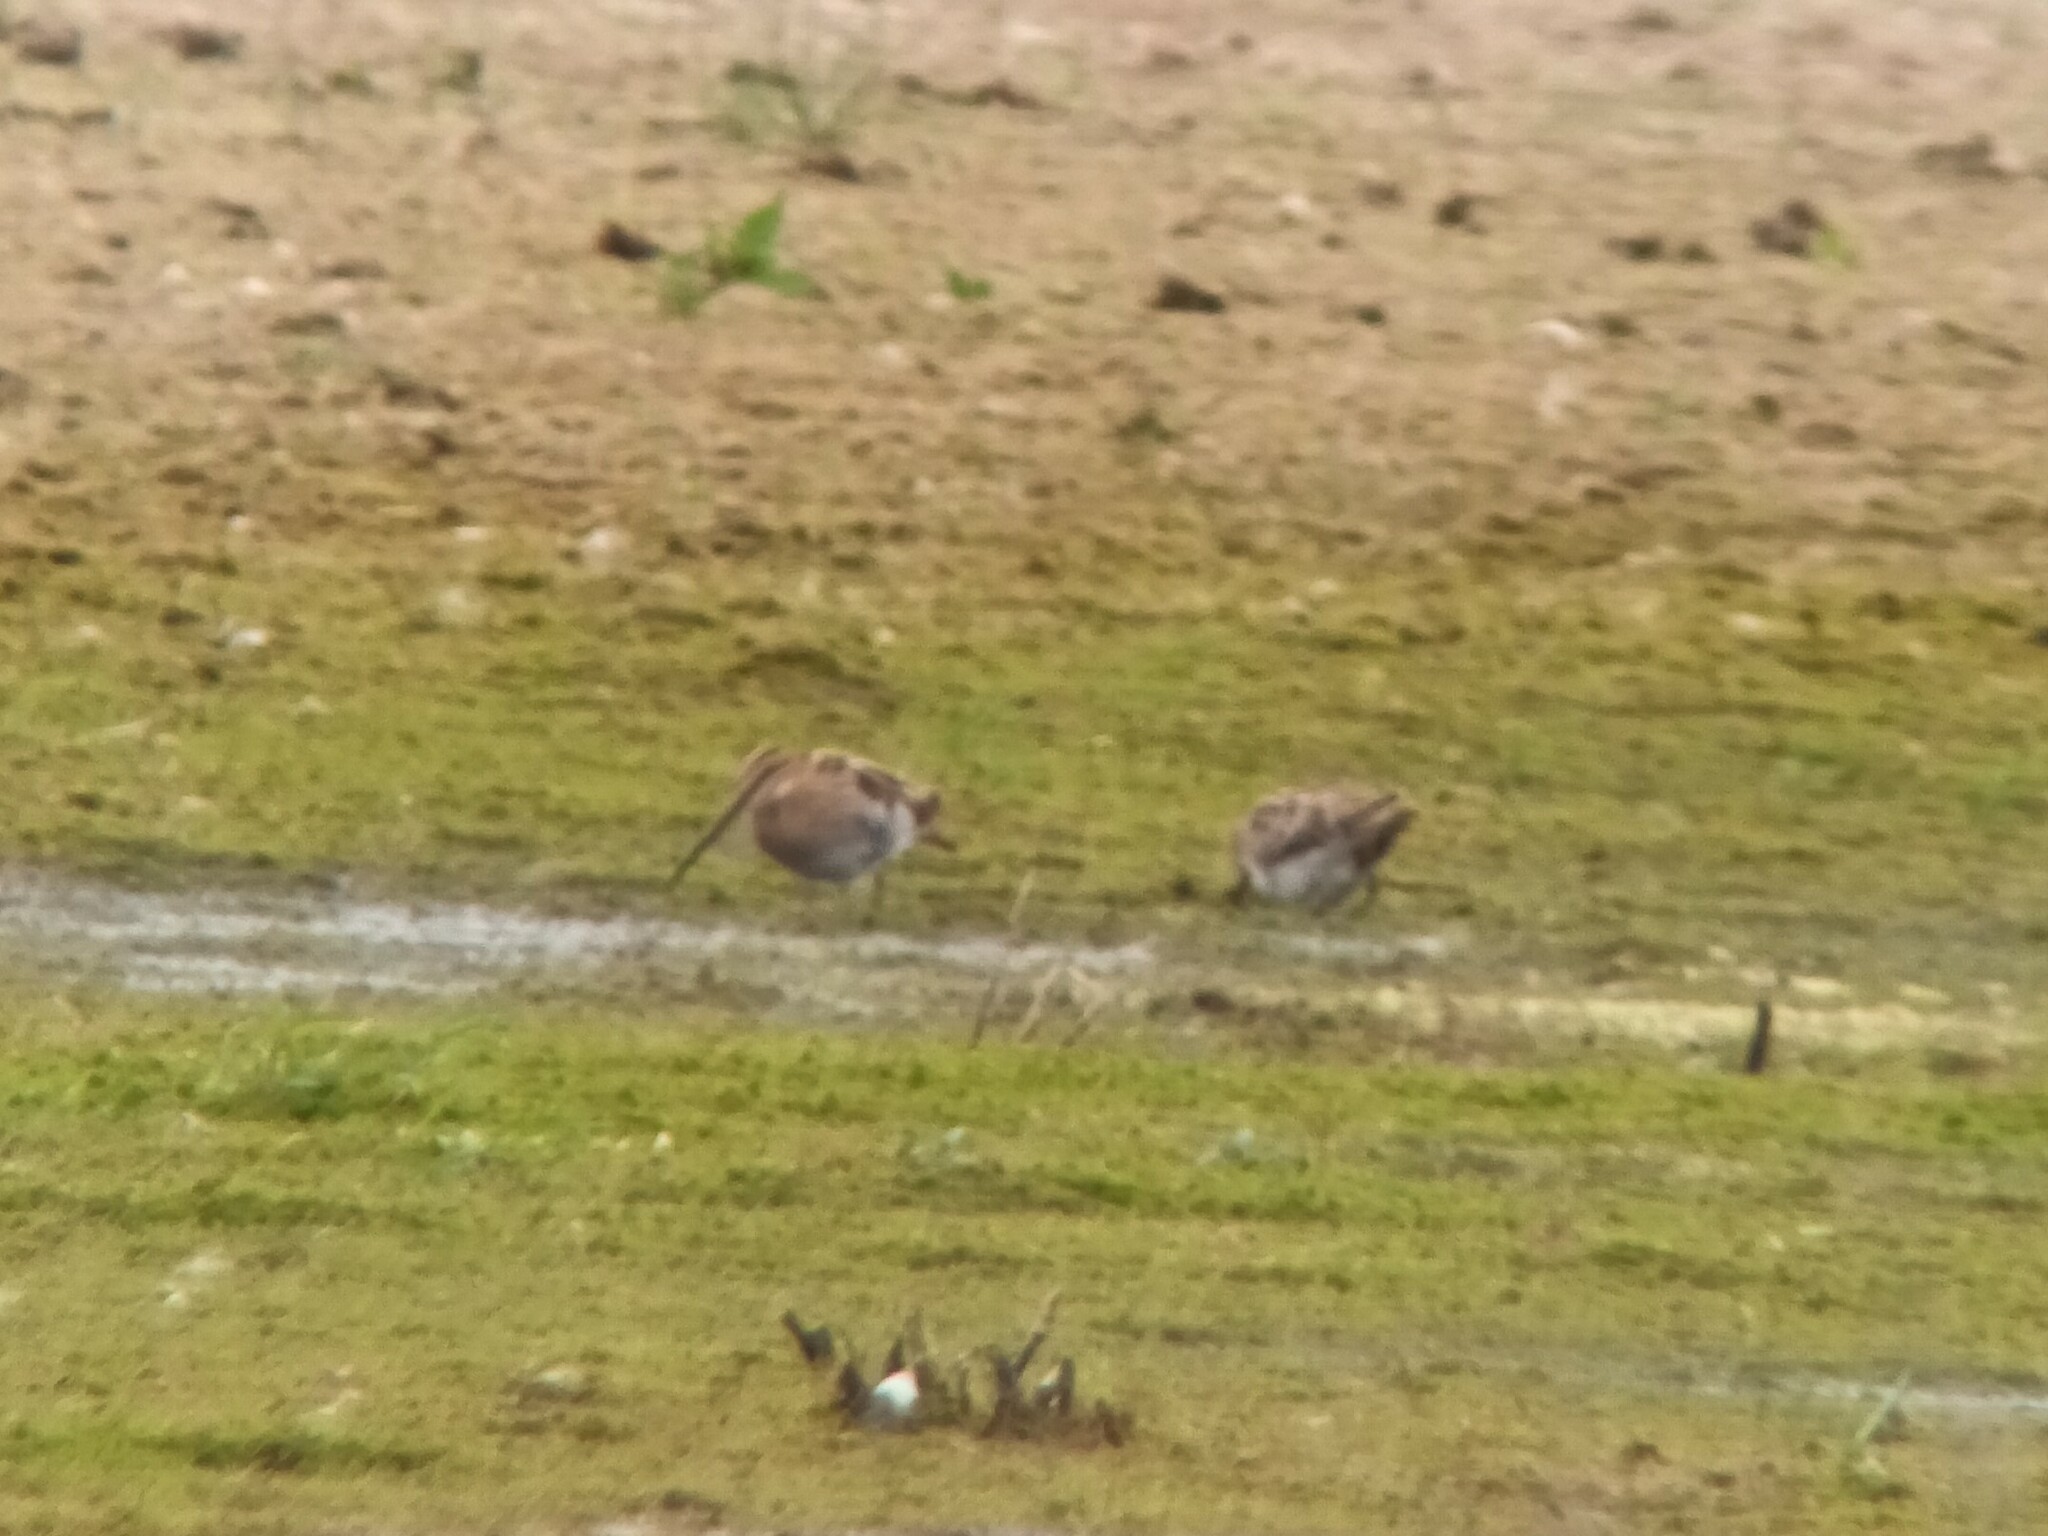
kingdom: Animalia
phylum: Chordata
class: Aves
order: Charadriiformes
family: Scolopacidae
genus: Gallinago
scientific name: Gallinago gallinago
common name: Common snipe
